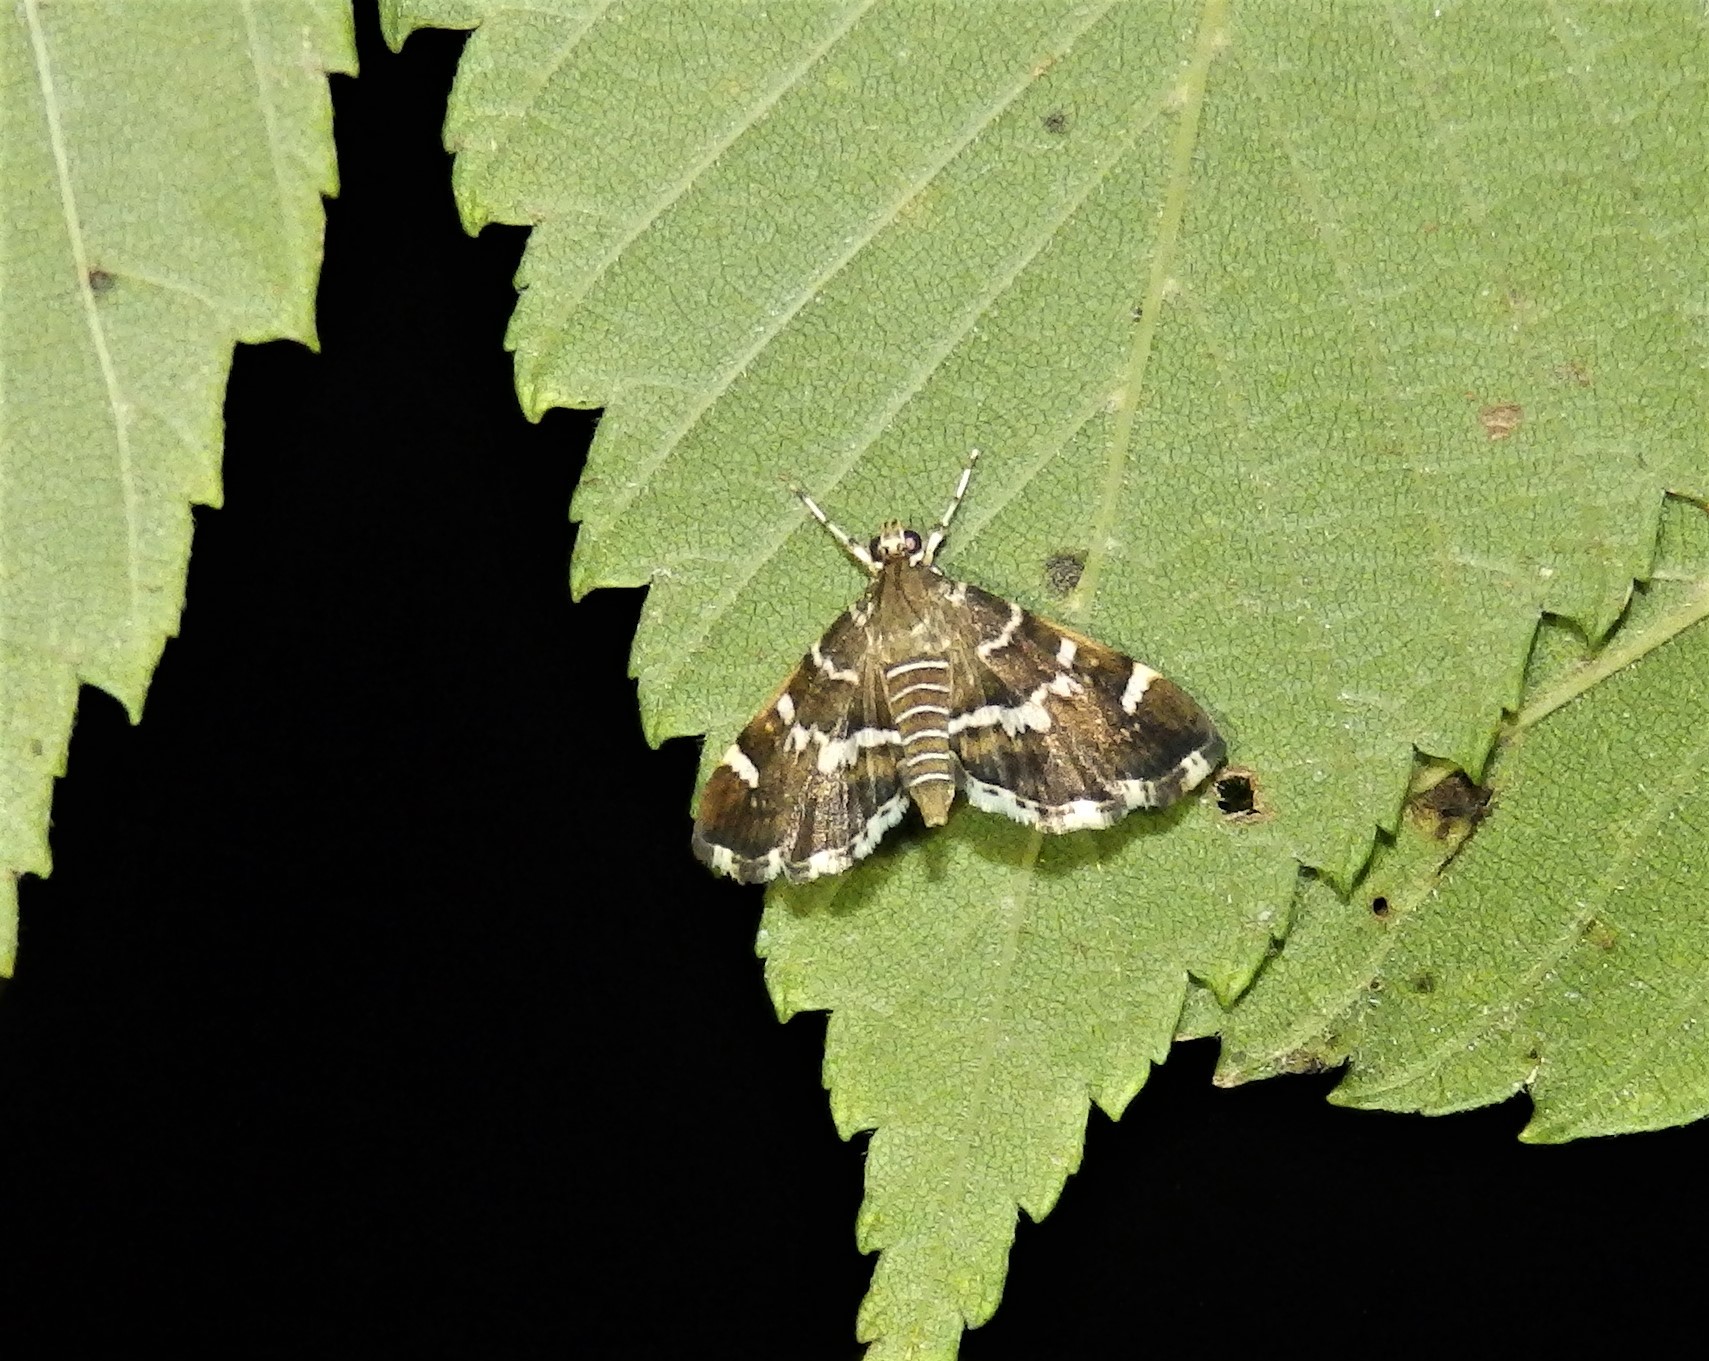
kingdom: Animalia
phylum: Arthropoda
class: Insecta
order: Lepidoptera
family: Crambidae
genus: Hymenia
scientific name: Hymenia perspectalis
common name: Spotted beet webworm
